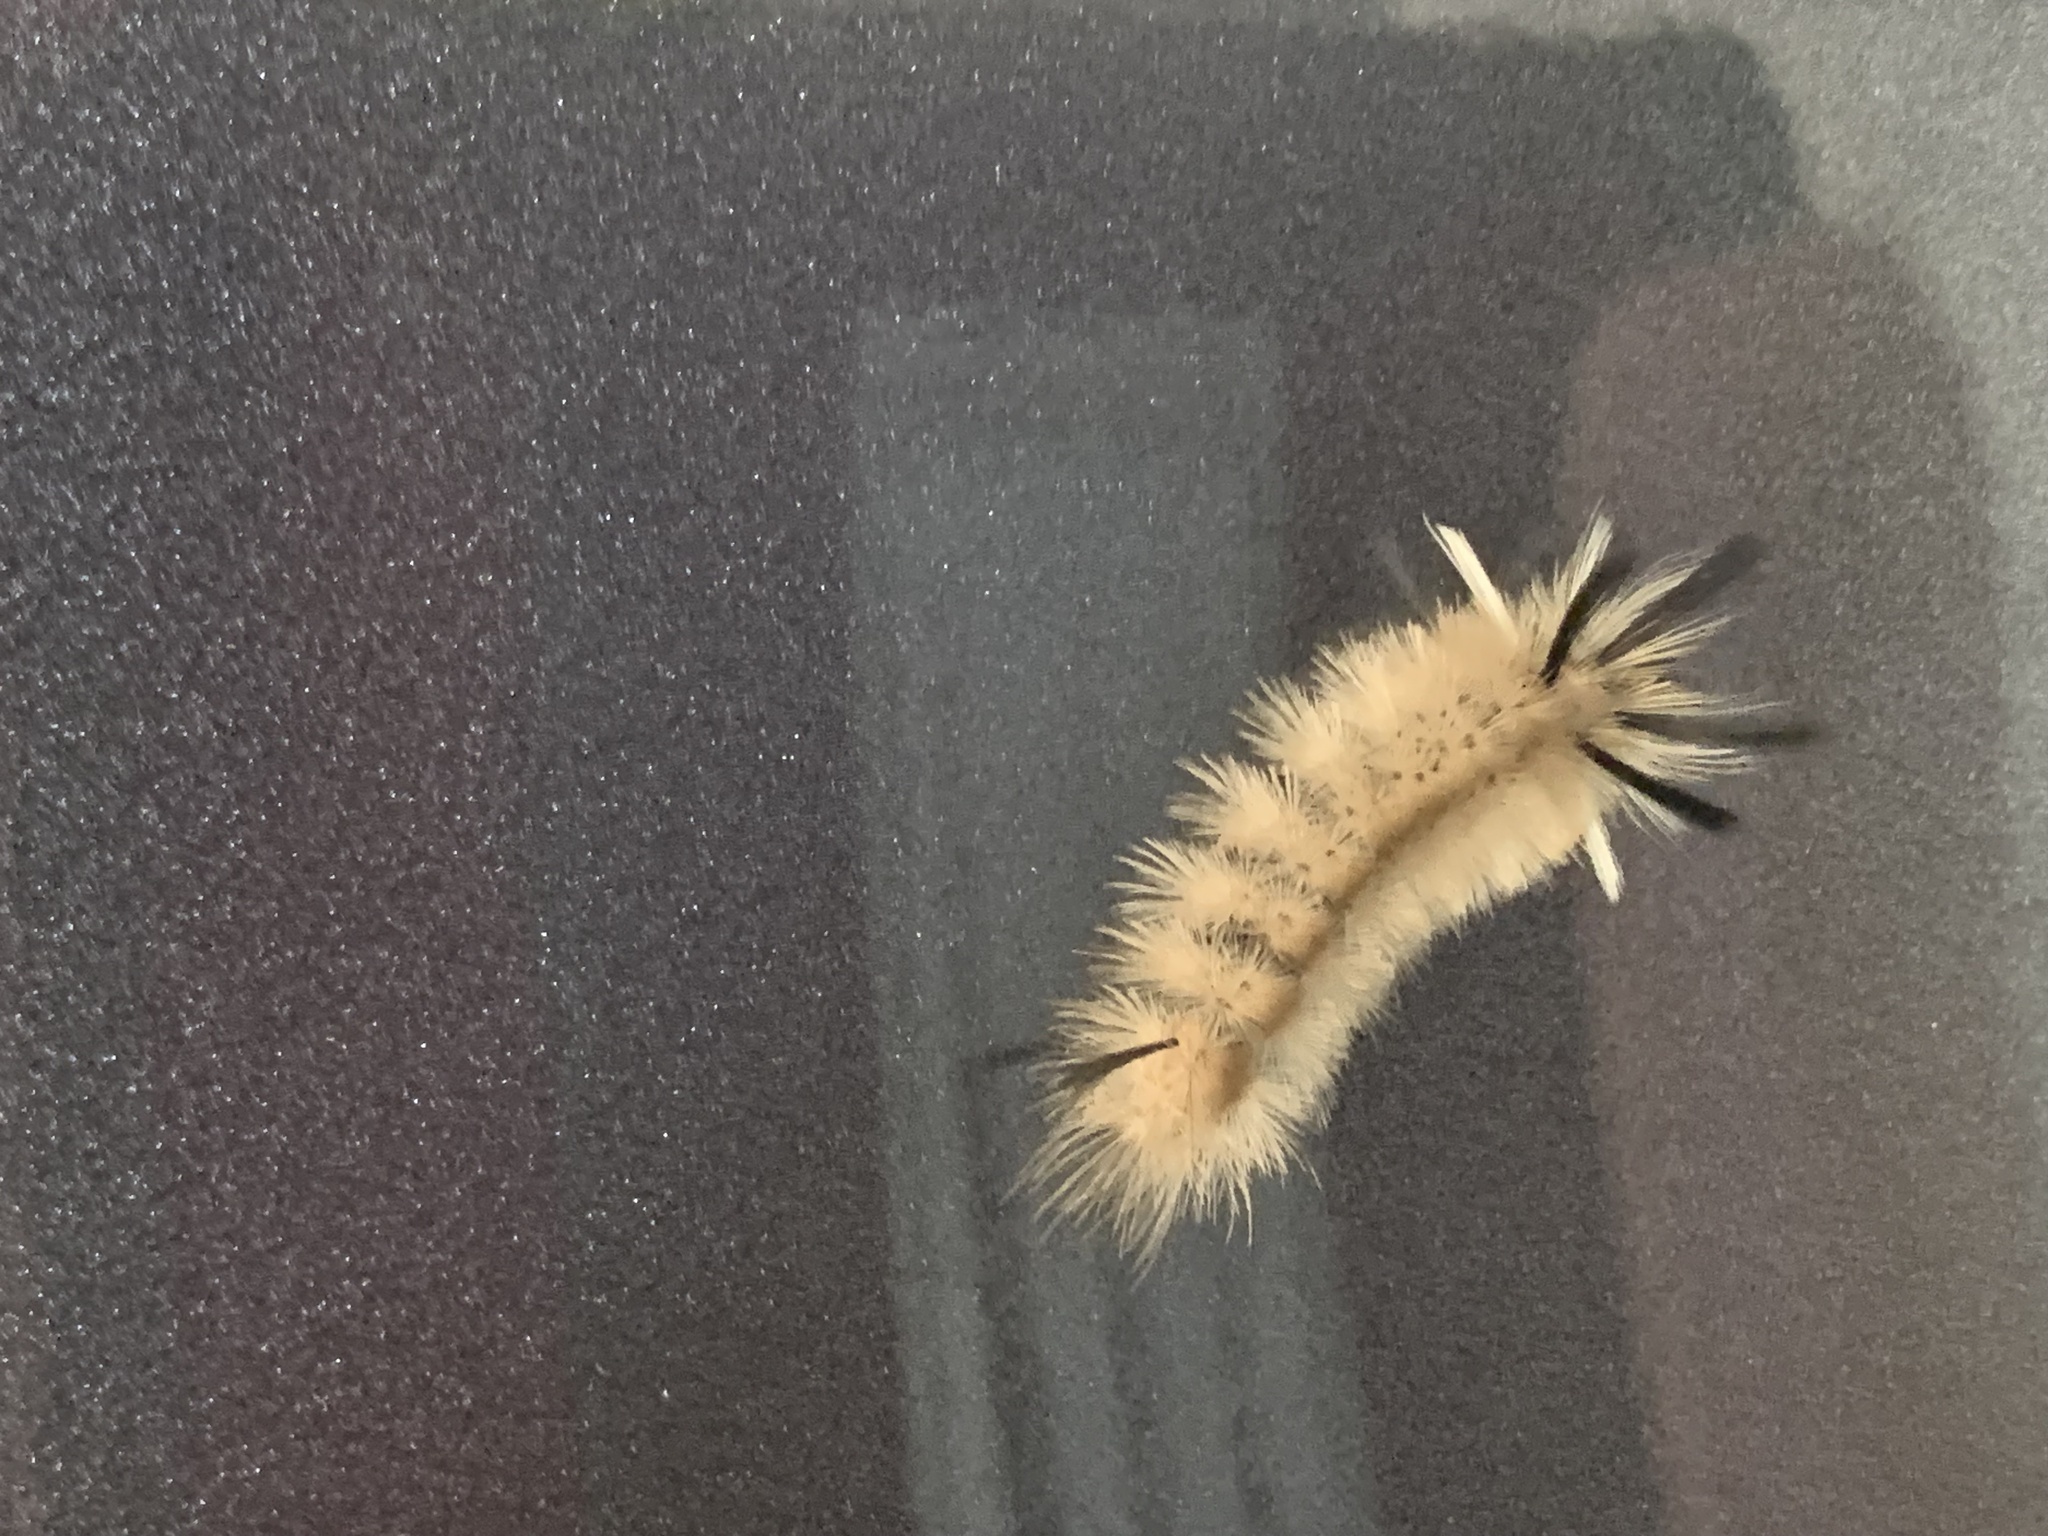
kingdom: Animalia
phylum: Arthropoda
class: Insecta
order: Lepidoptera
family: Erebidae
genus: Halysidota
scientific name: Halysidota tessellaris
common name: Banded tussock moth
